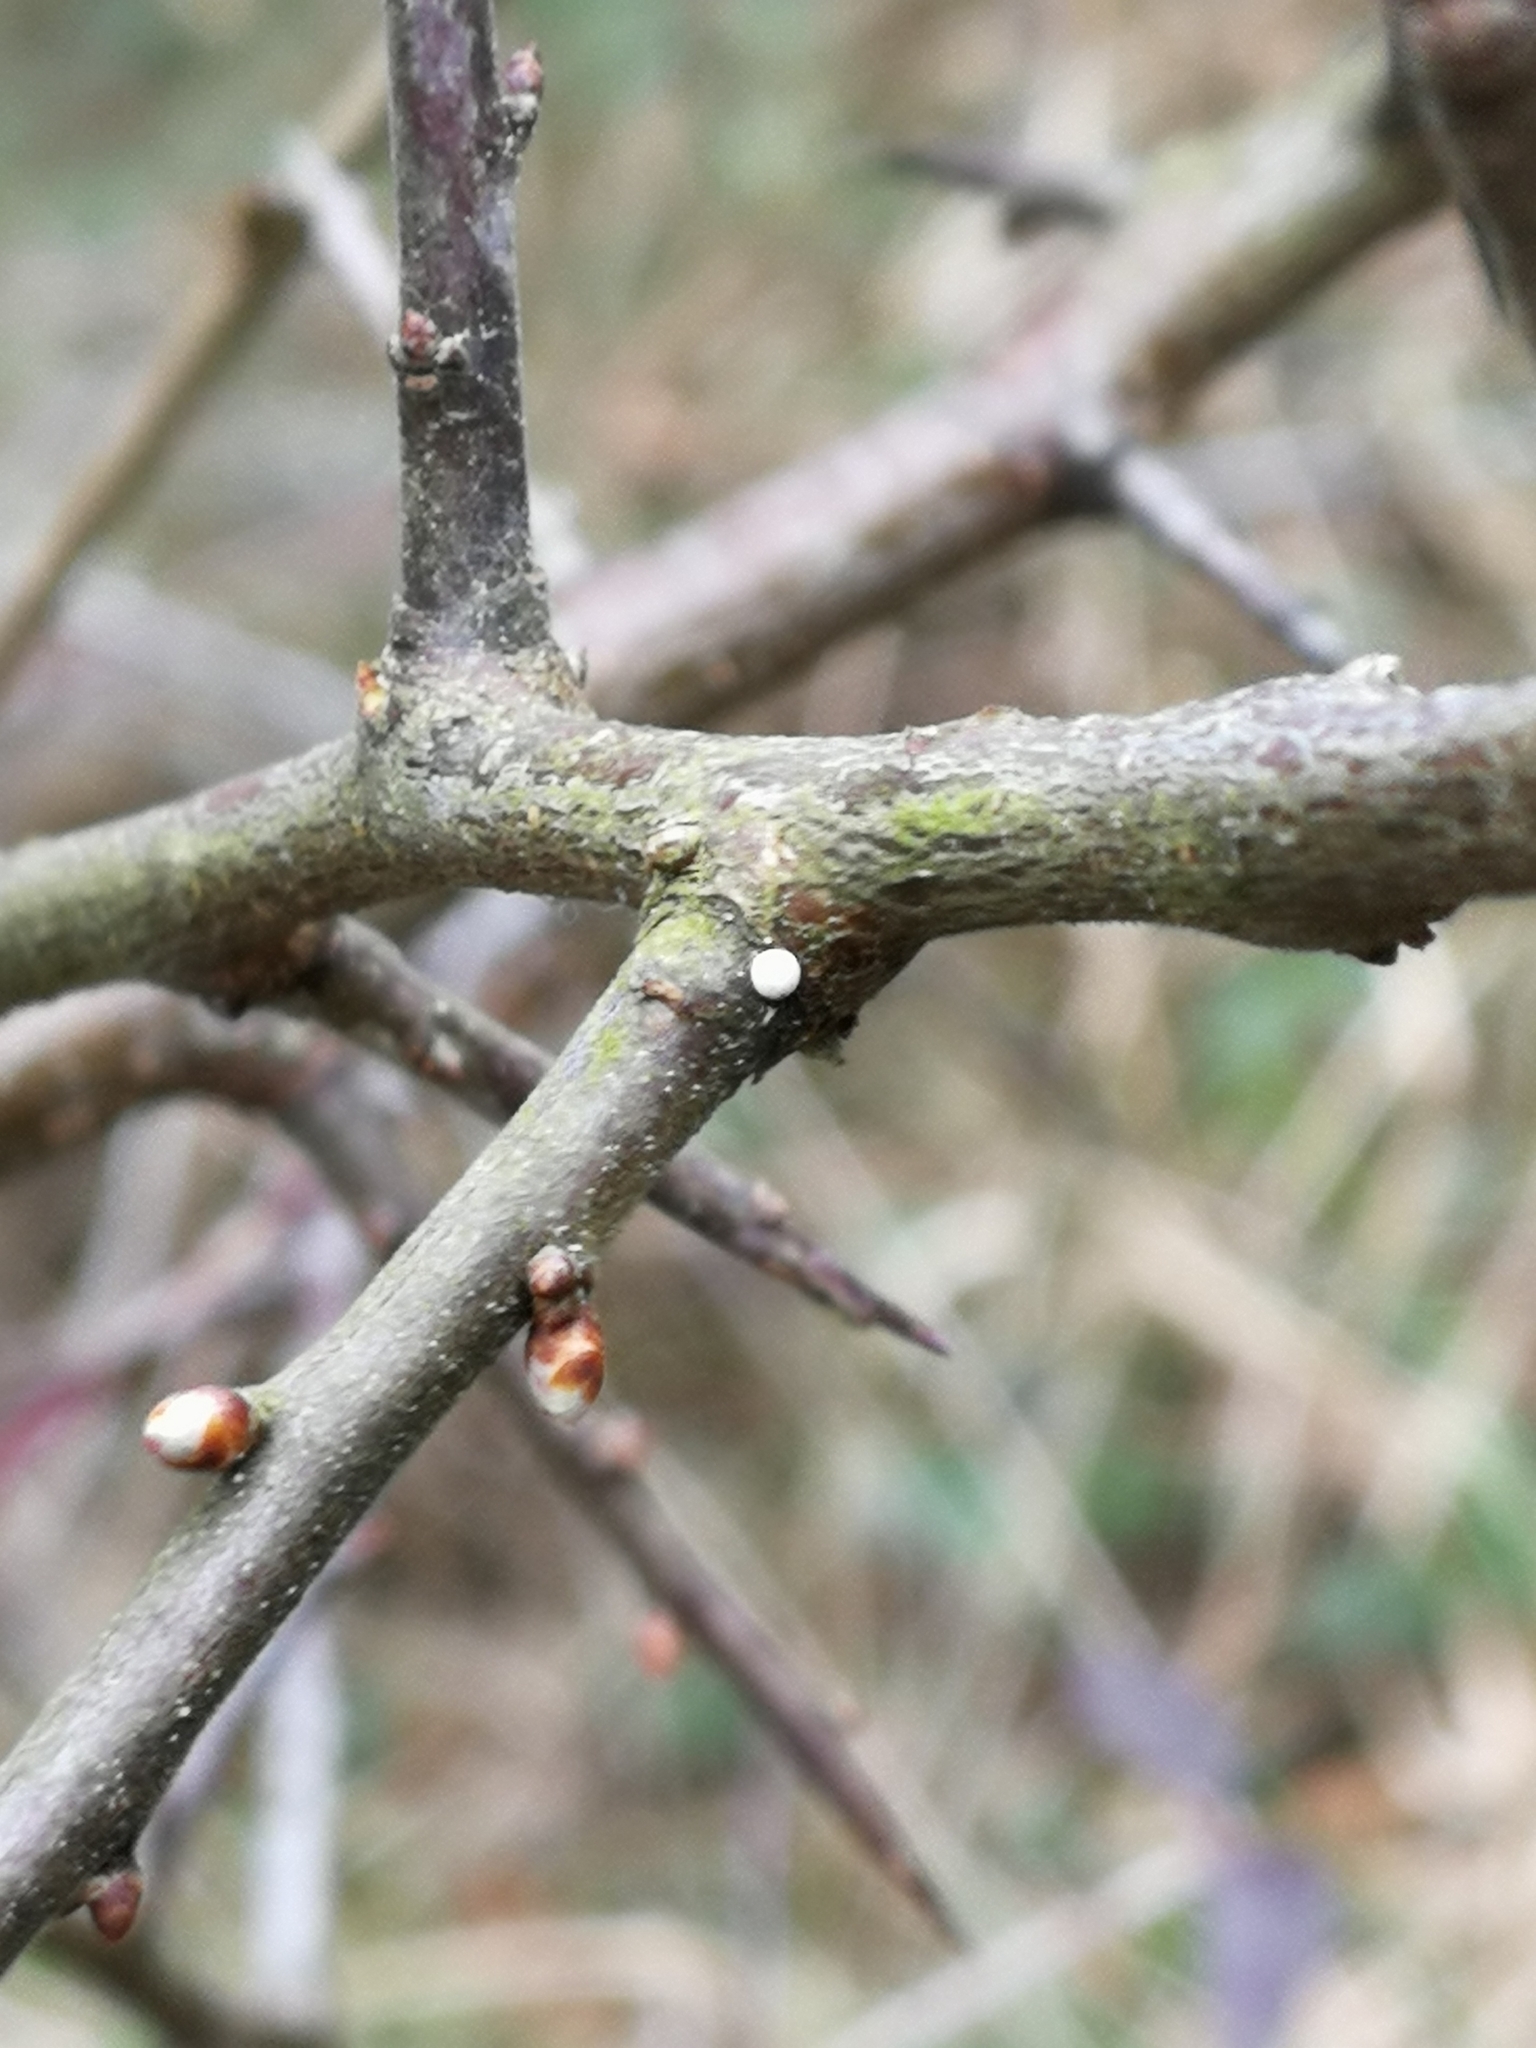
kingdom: Animalia
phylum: Arthropoda
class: Insecta
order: Lepidoptera
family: Lycaenidae
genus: Thecla
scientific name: Thecla betulae
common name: Brown hairstreak
